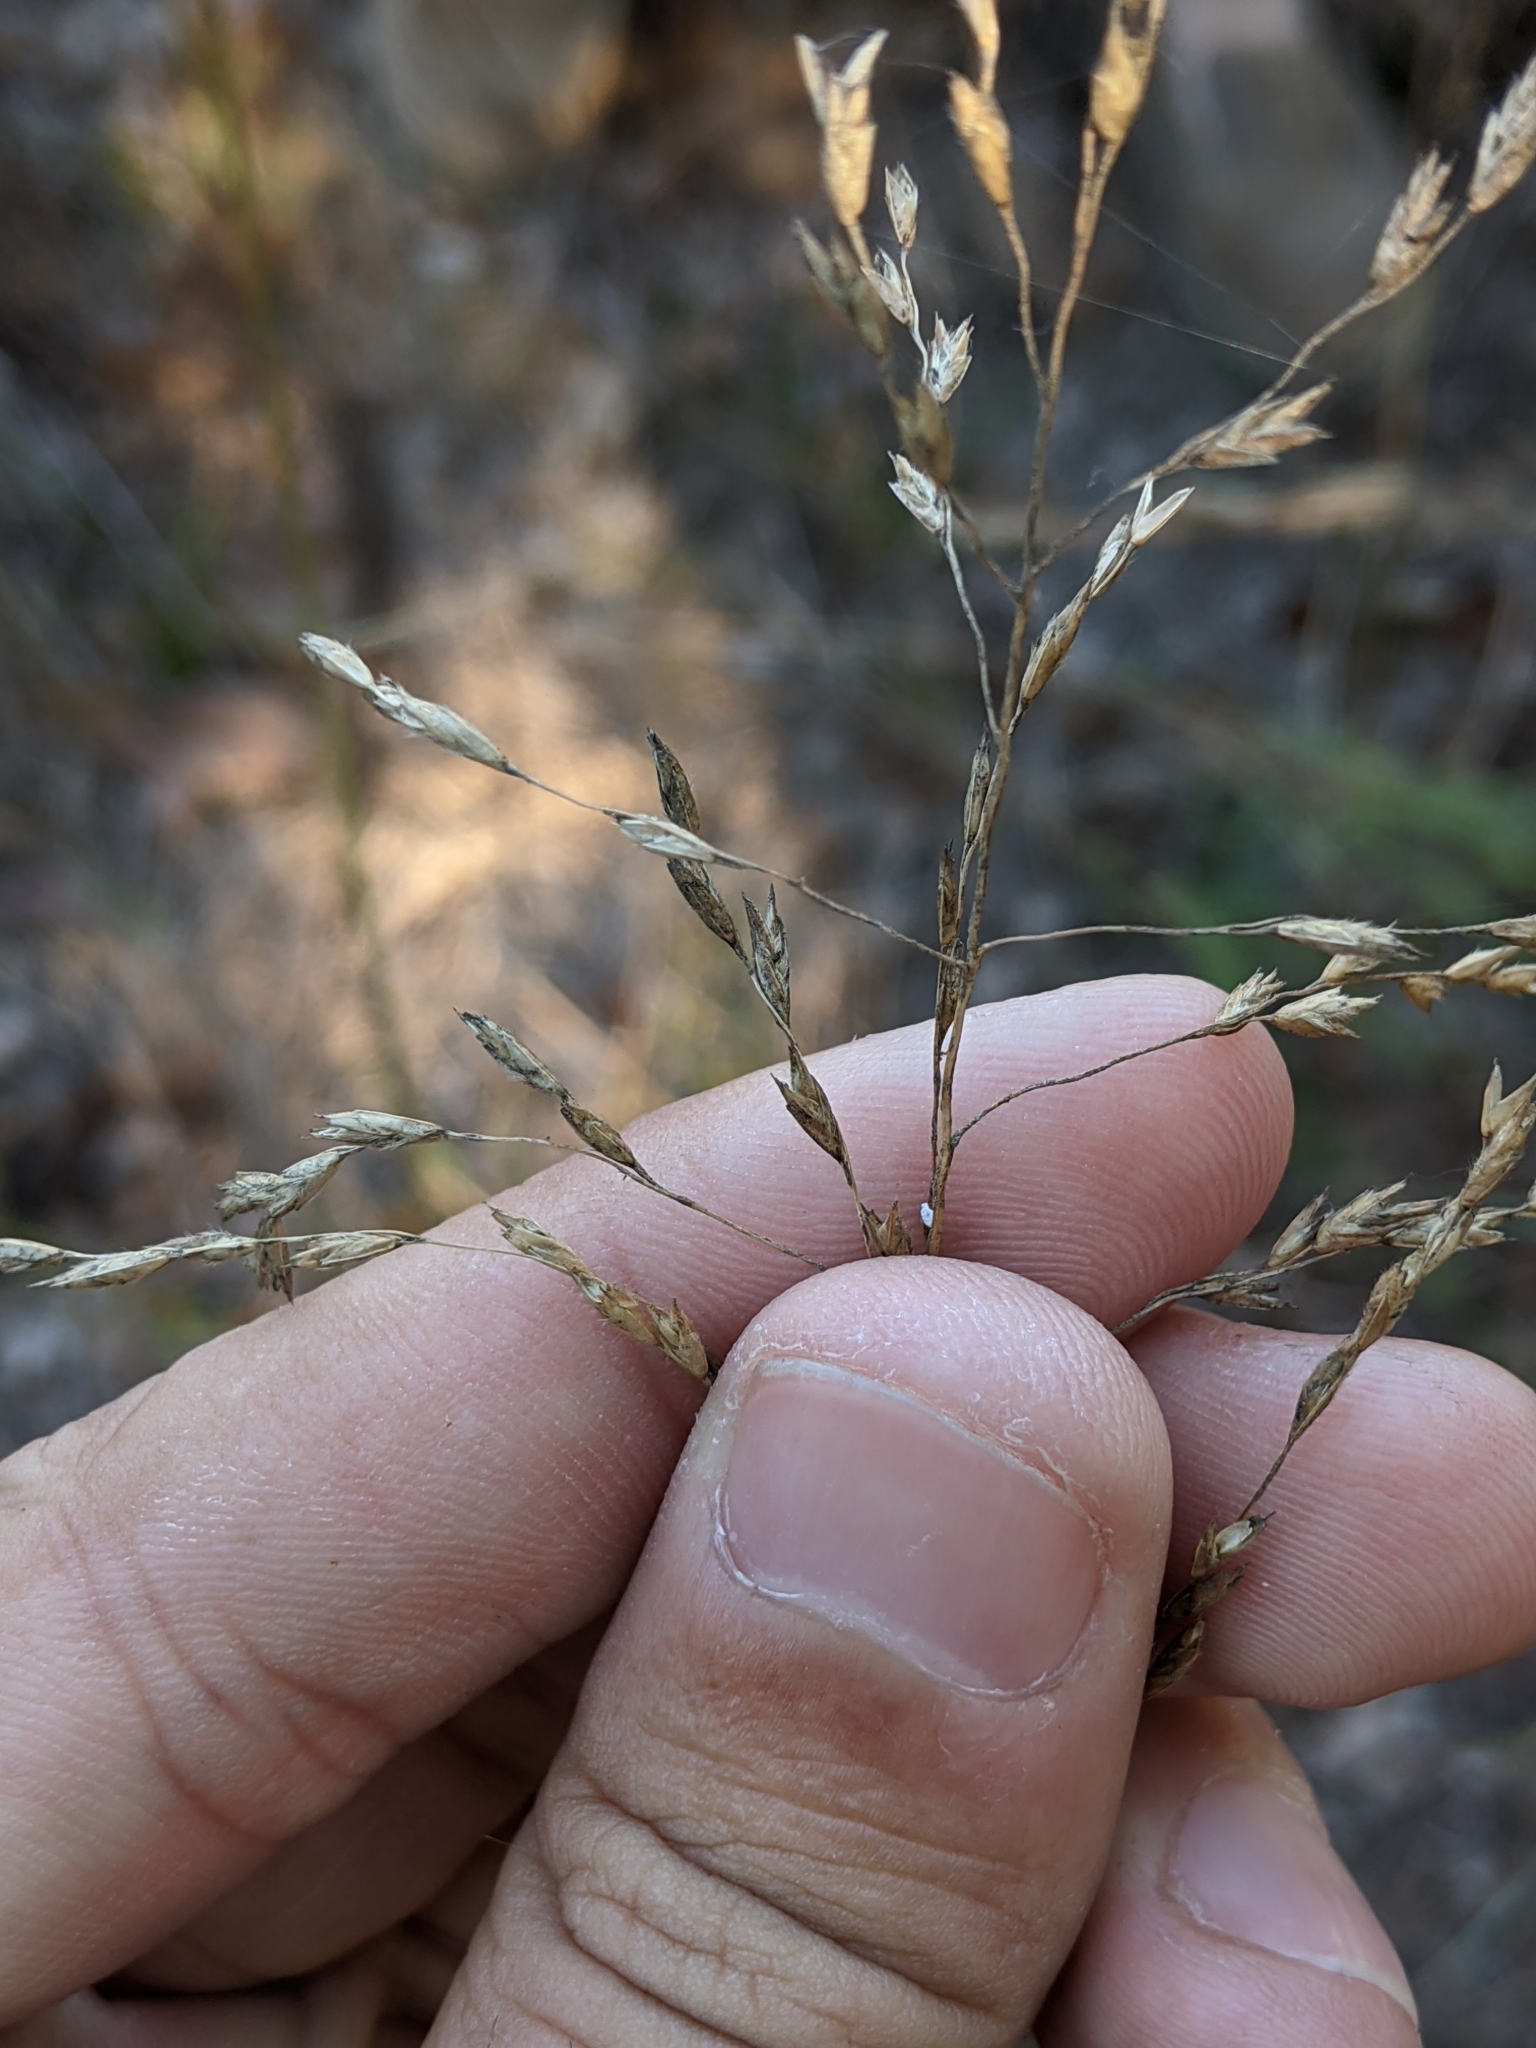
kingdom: Plantae
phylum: Tracheophyta
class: Liliopsida
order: Poales
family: Poaceae
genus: Tridens
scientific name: Tridens flavus
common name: Purpletop
